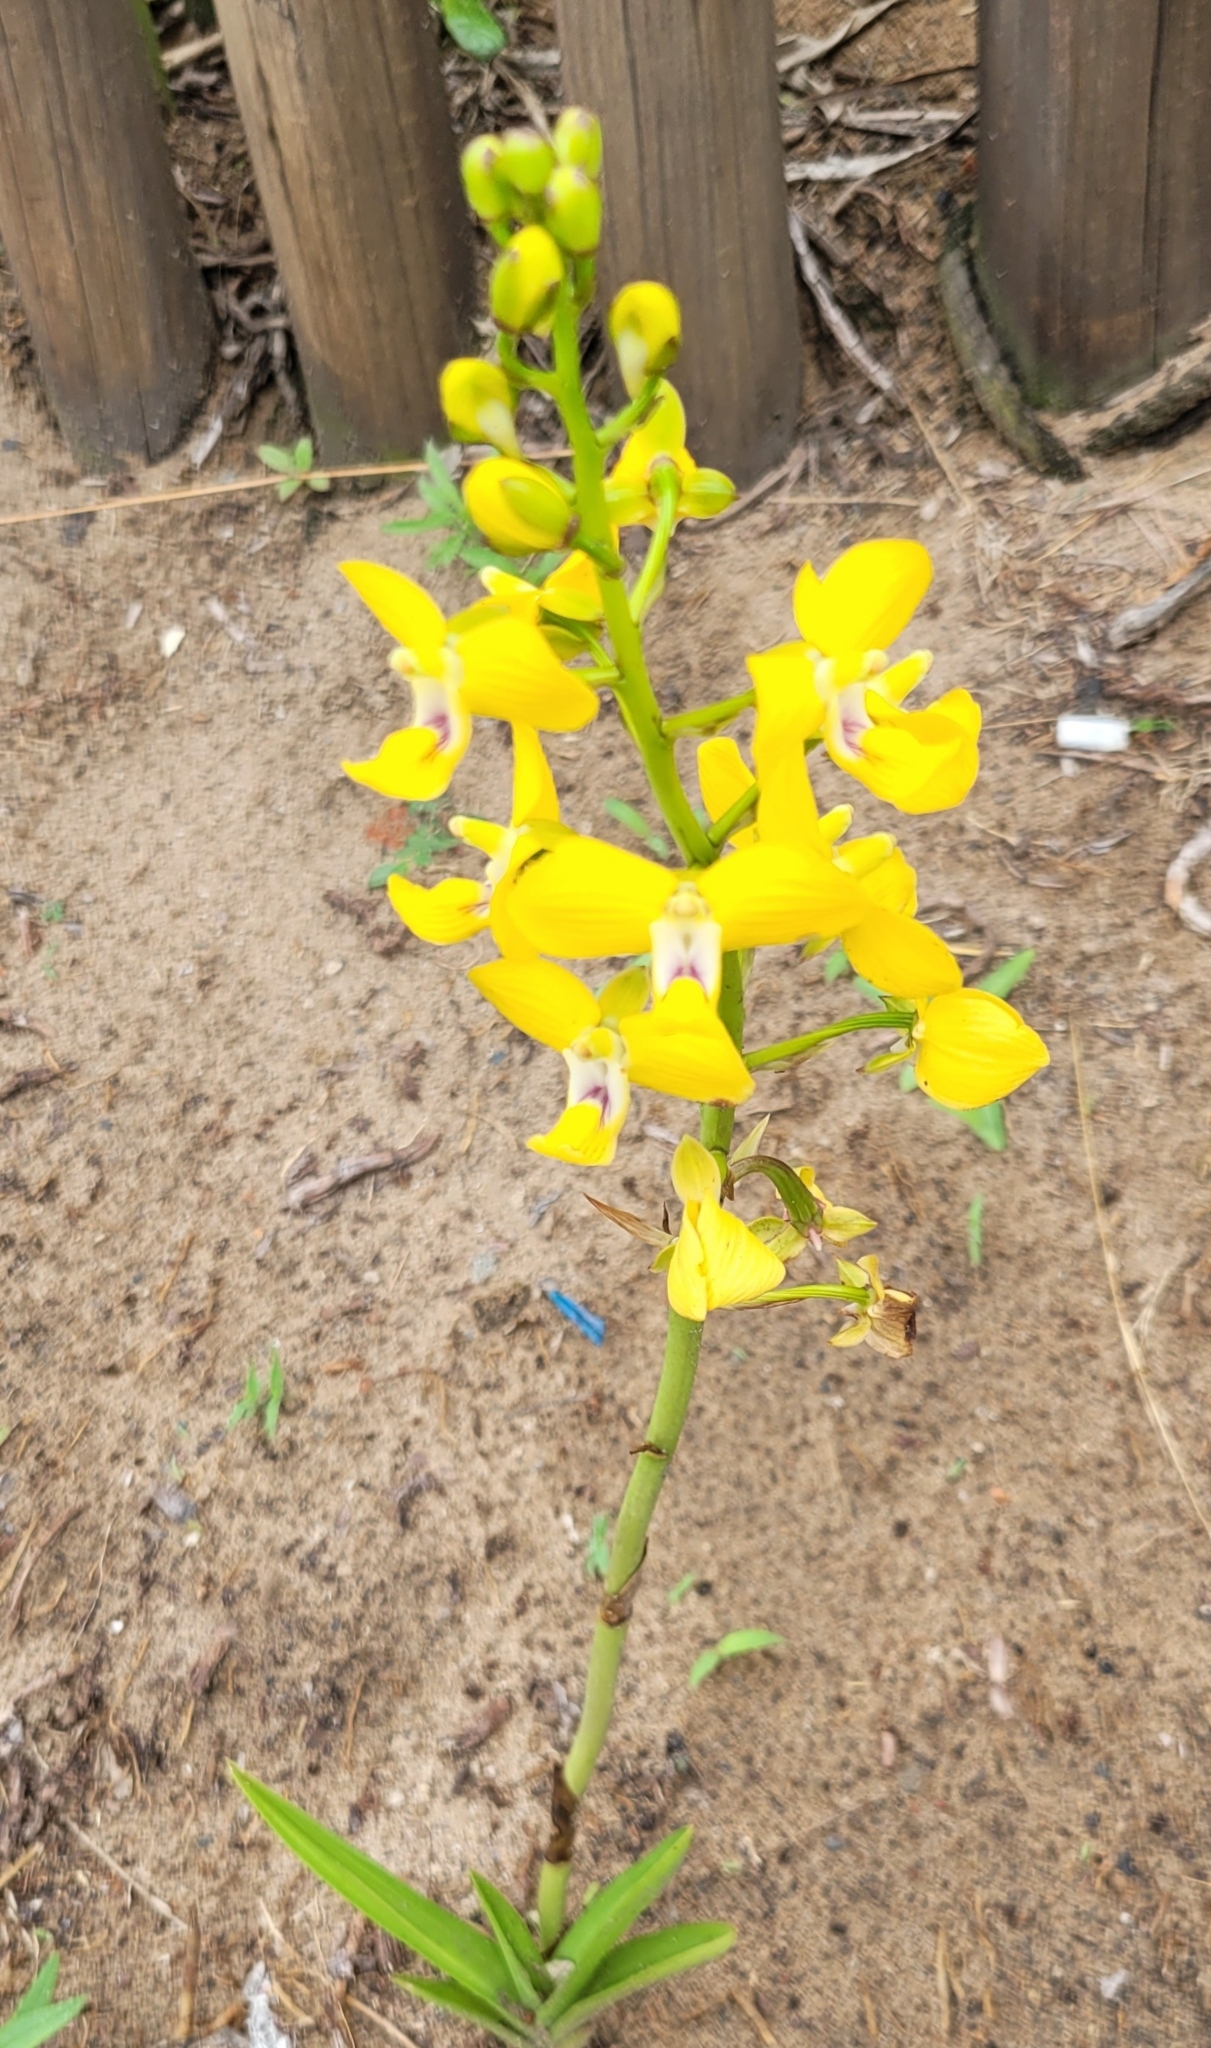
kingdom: Plantae
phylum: Tracheophyta
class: Liliopsida
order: Asparagales
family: Orchidaceae
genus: Eulophia
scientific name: Eulophia speciosa
